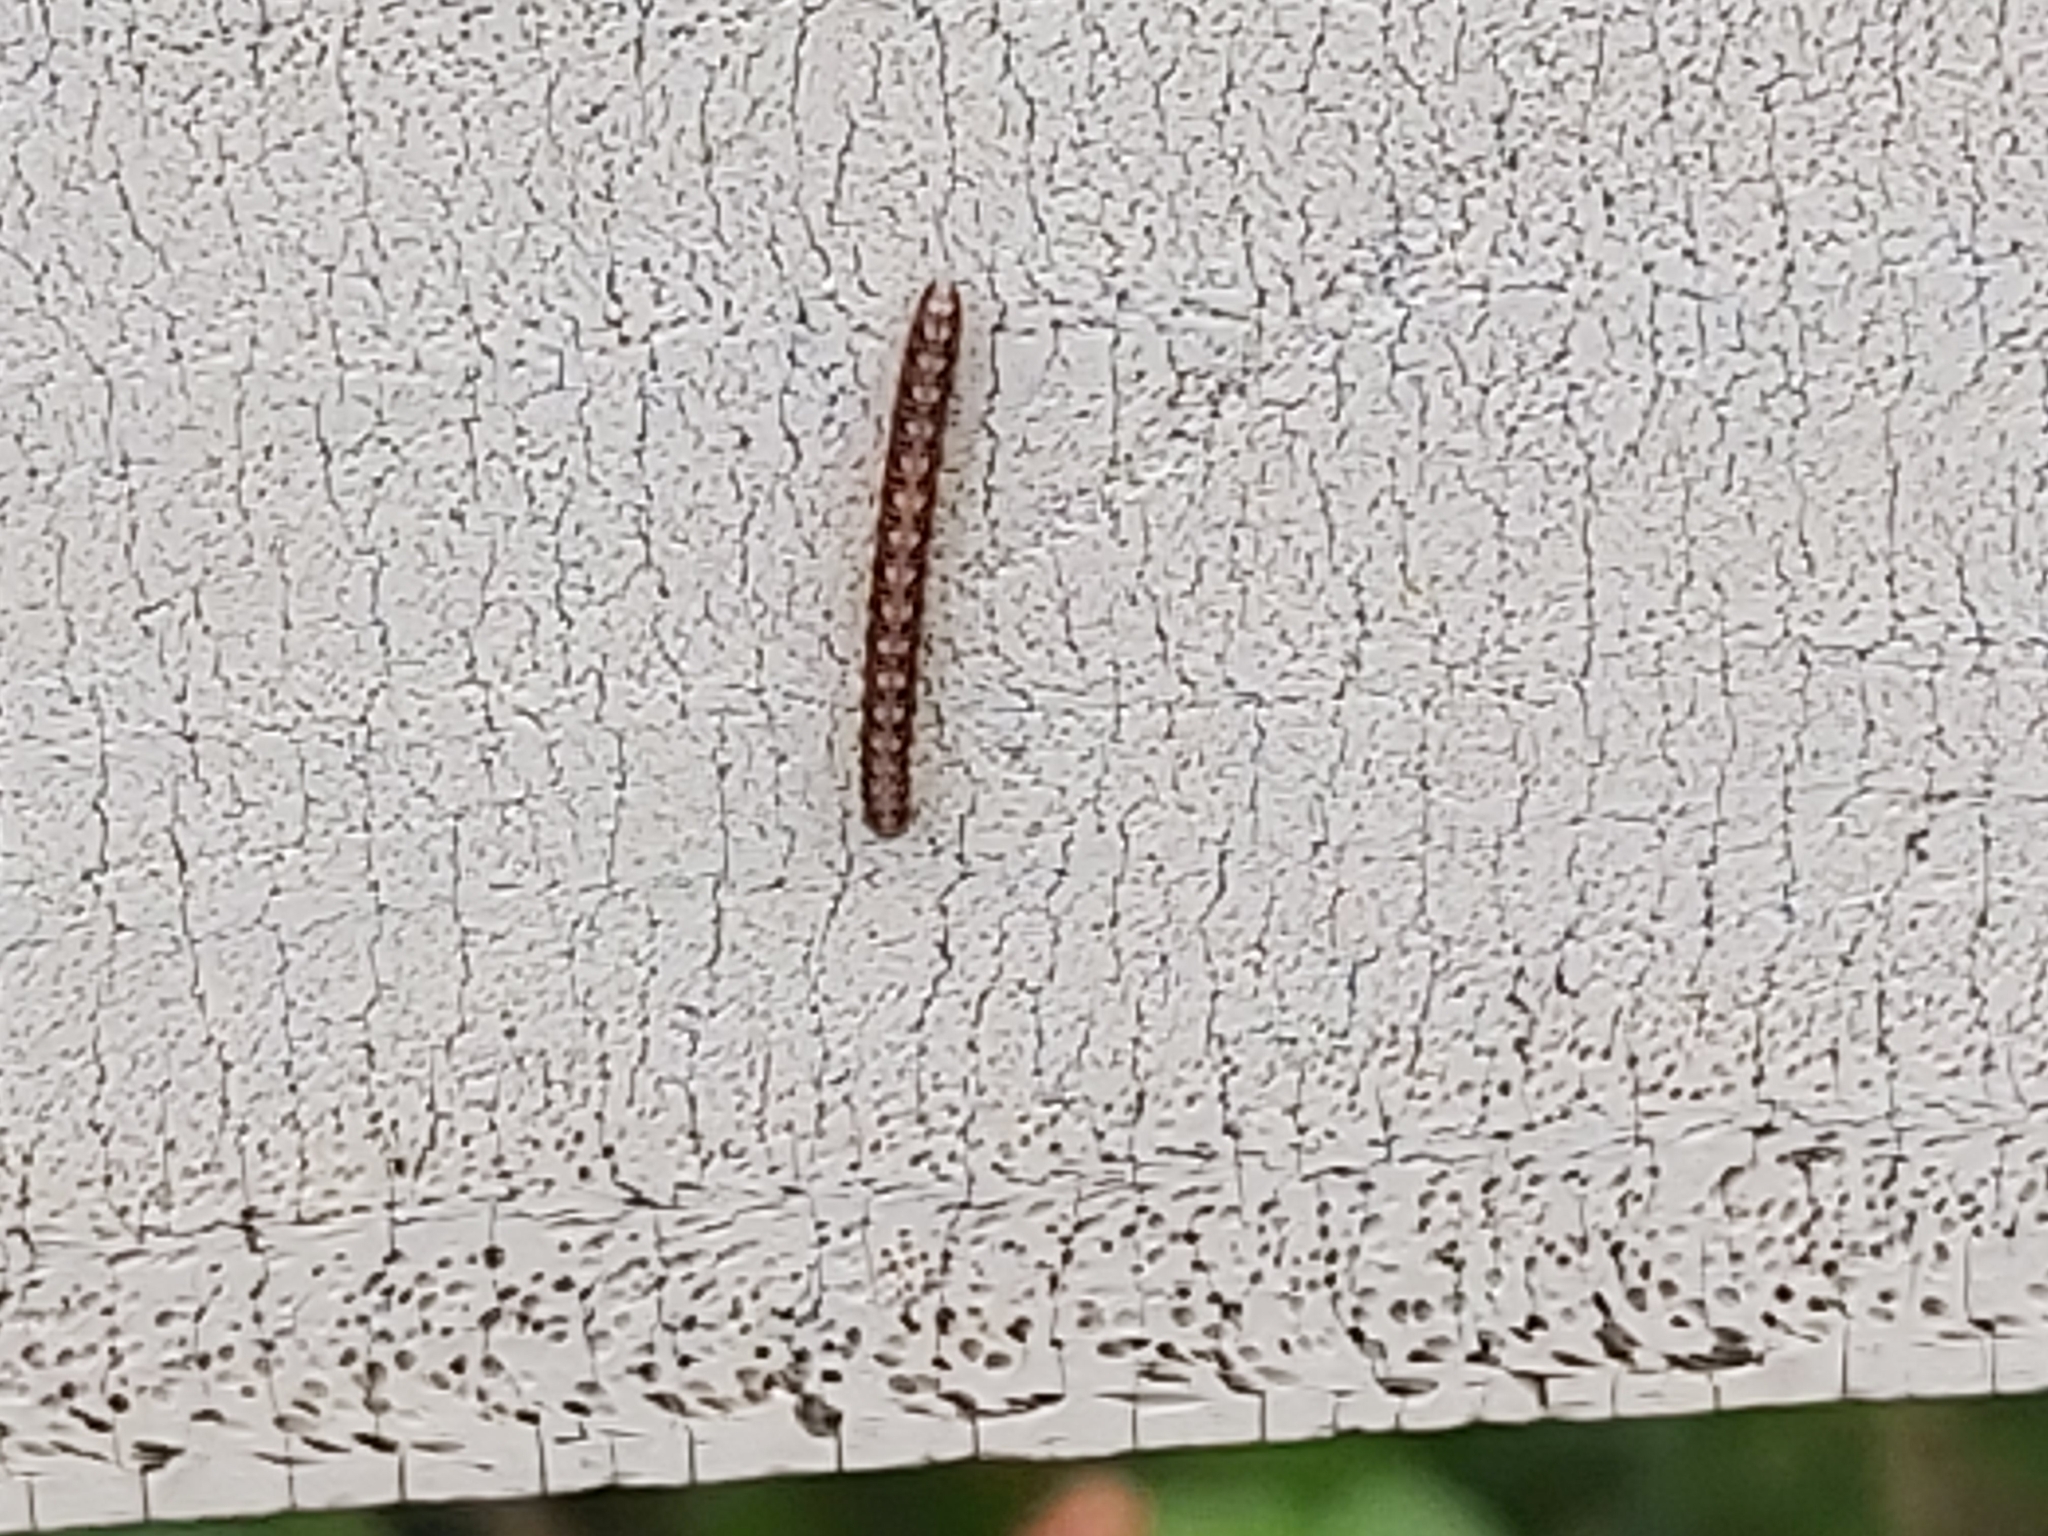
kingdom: Animalia
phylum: Arthropoda
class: Diplopoda
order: Polydesmida
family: Paradoxosomatidae
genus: Helicorthomorpha
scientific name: Helicorthomorpha holstii
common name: Millipede
